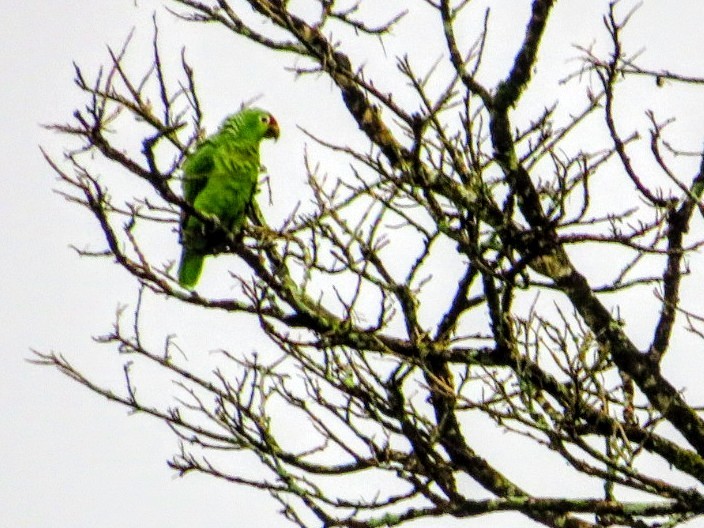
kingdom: Animalia
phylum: Chordata
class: Aves
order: Psittaciformes
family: Psittacidae
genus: Amazona
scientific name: Amazona autumnalis
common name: Red-lored amazon
